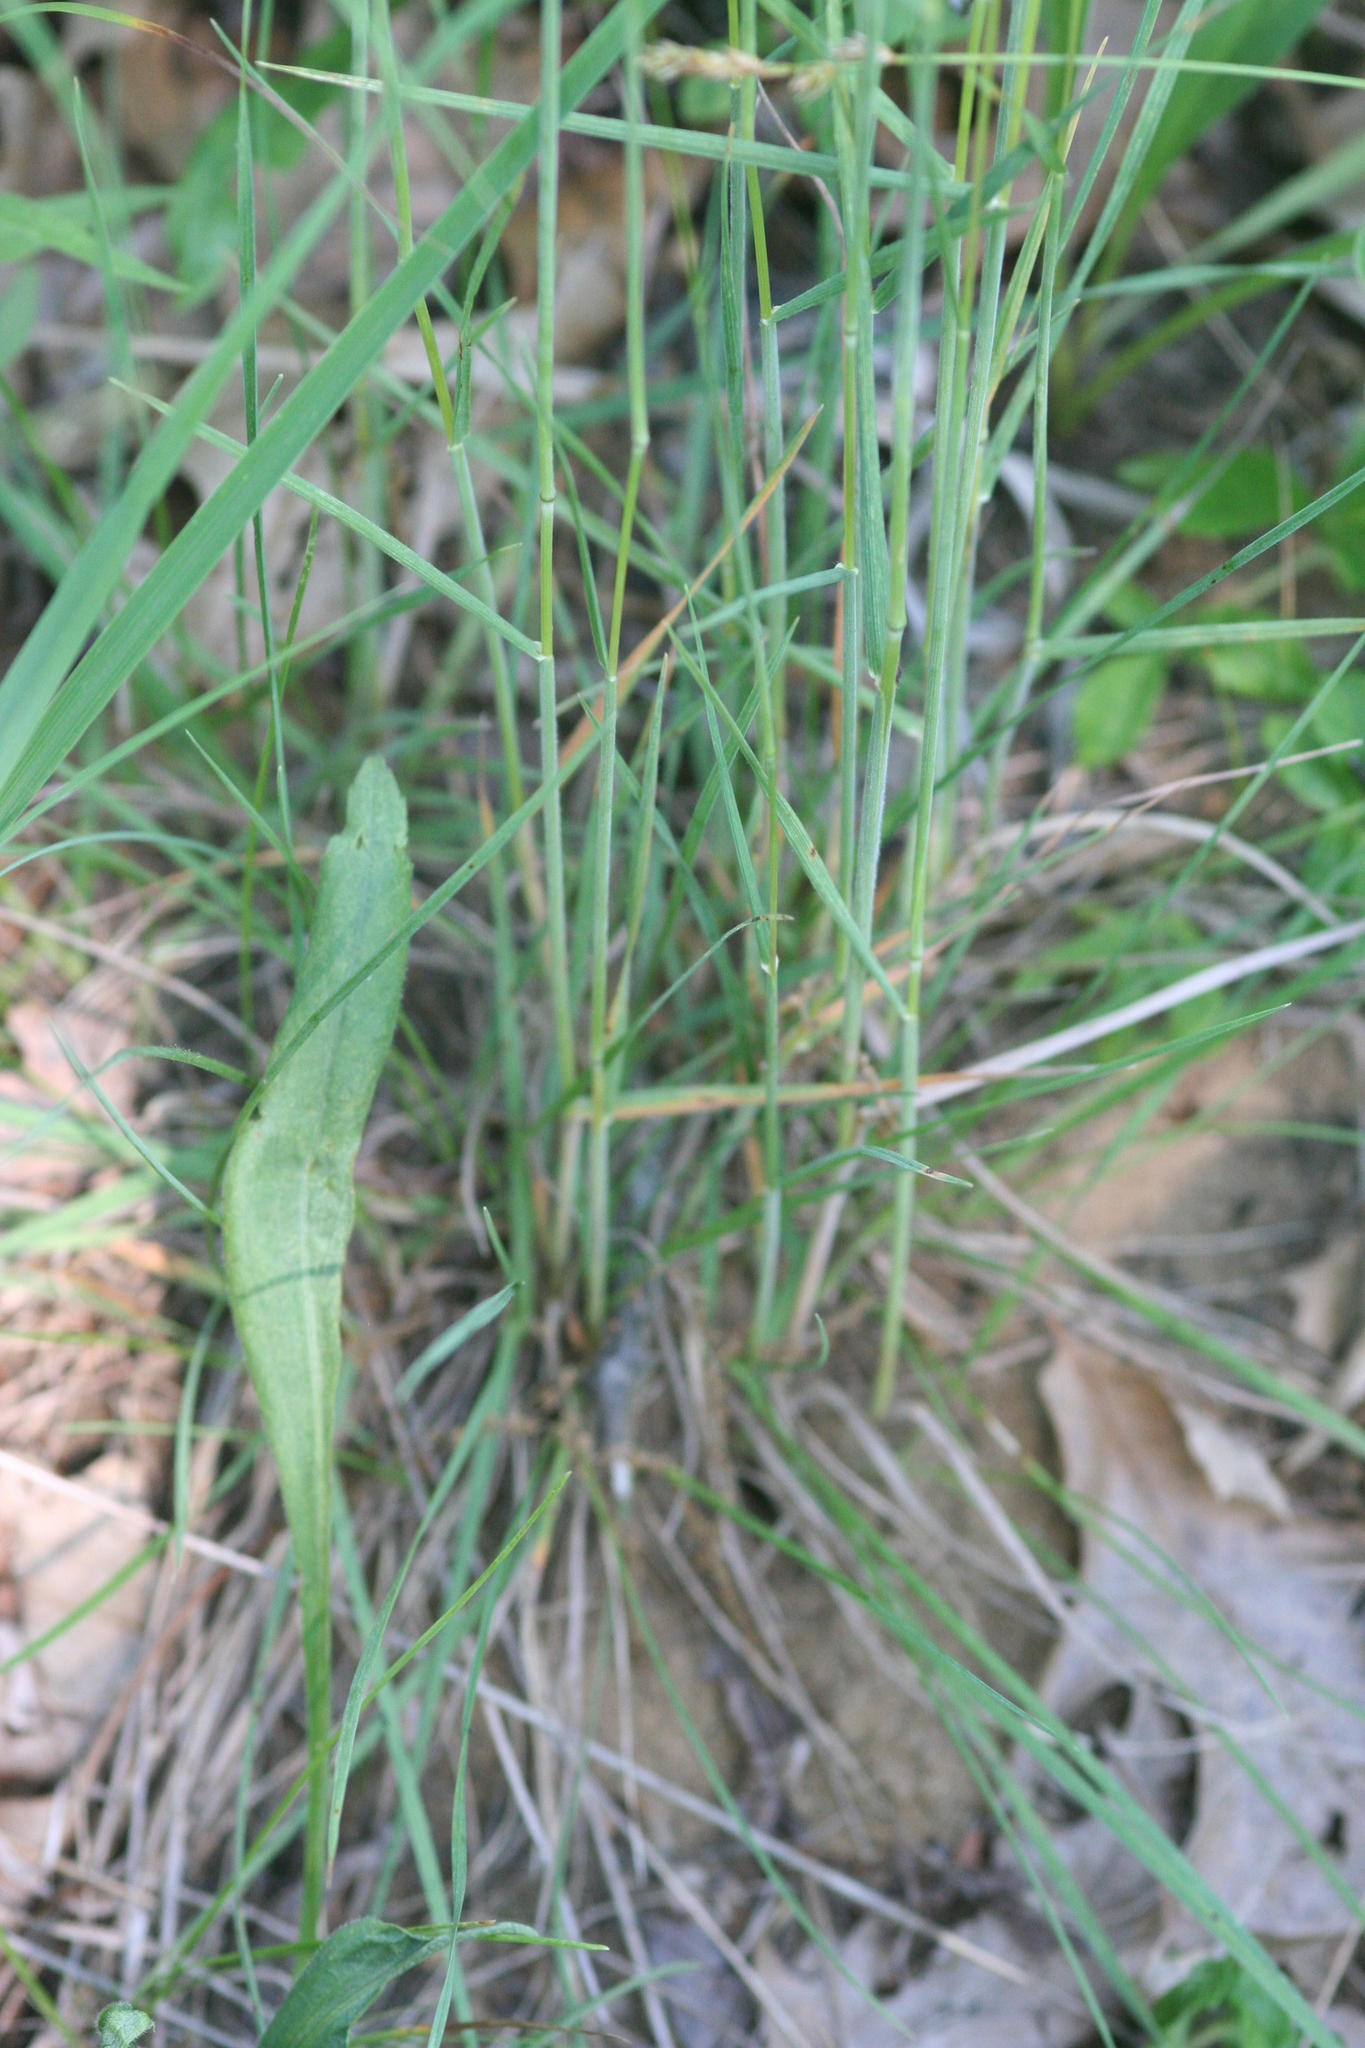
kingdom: Plantae
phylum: Tracheophyta
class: Liliopsida
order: Poales
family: Poaceae
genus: Koeleria
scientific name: Koeleria macrantha
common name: Crested hair-grass
